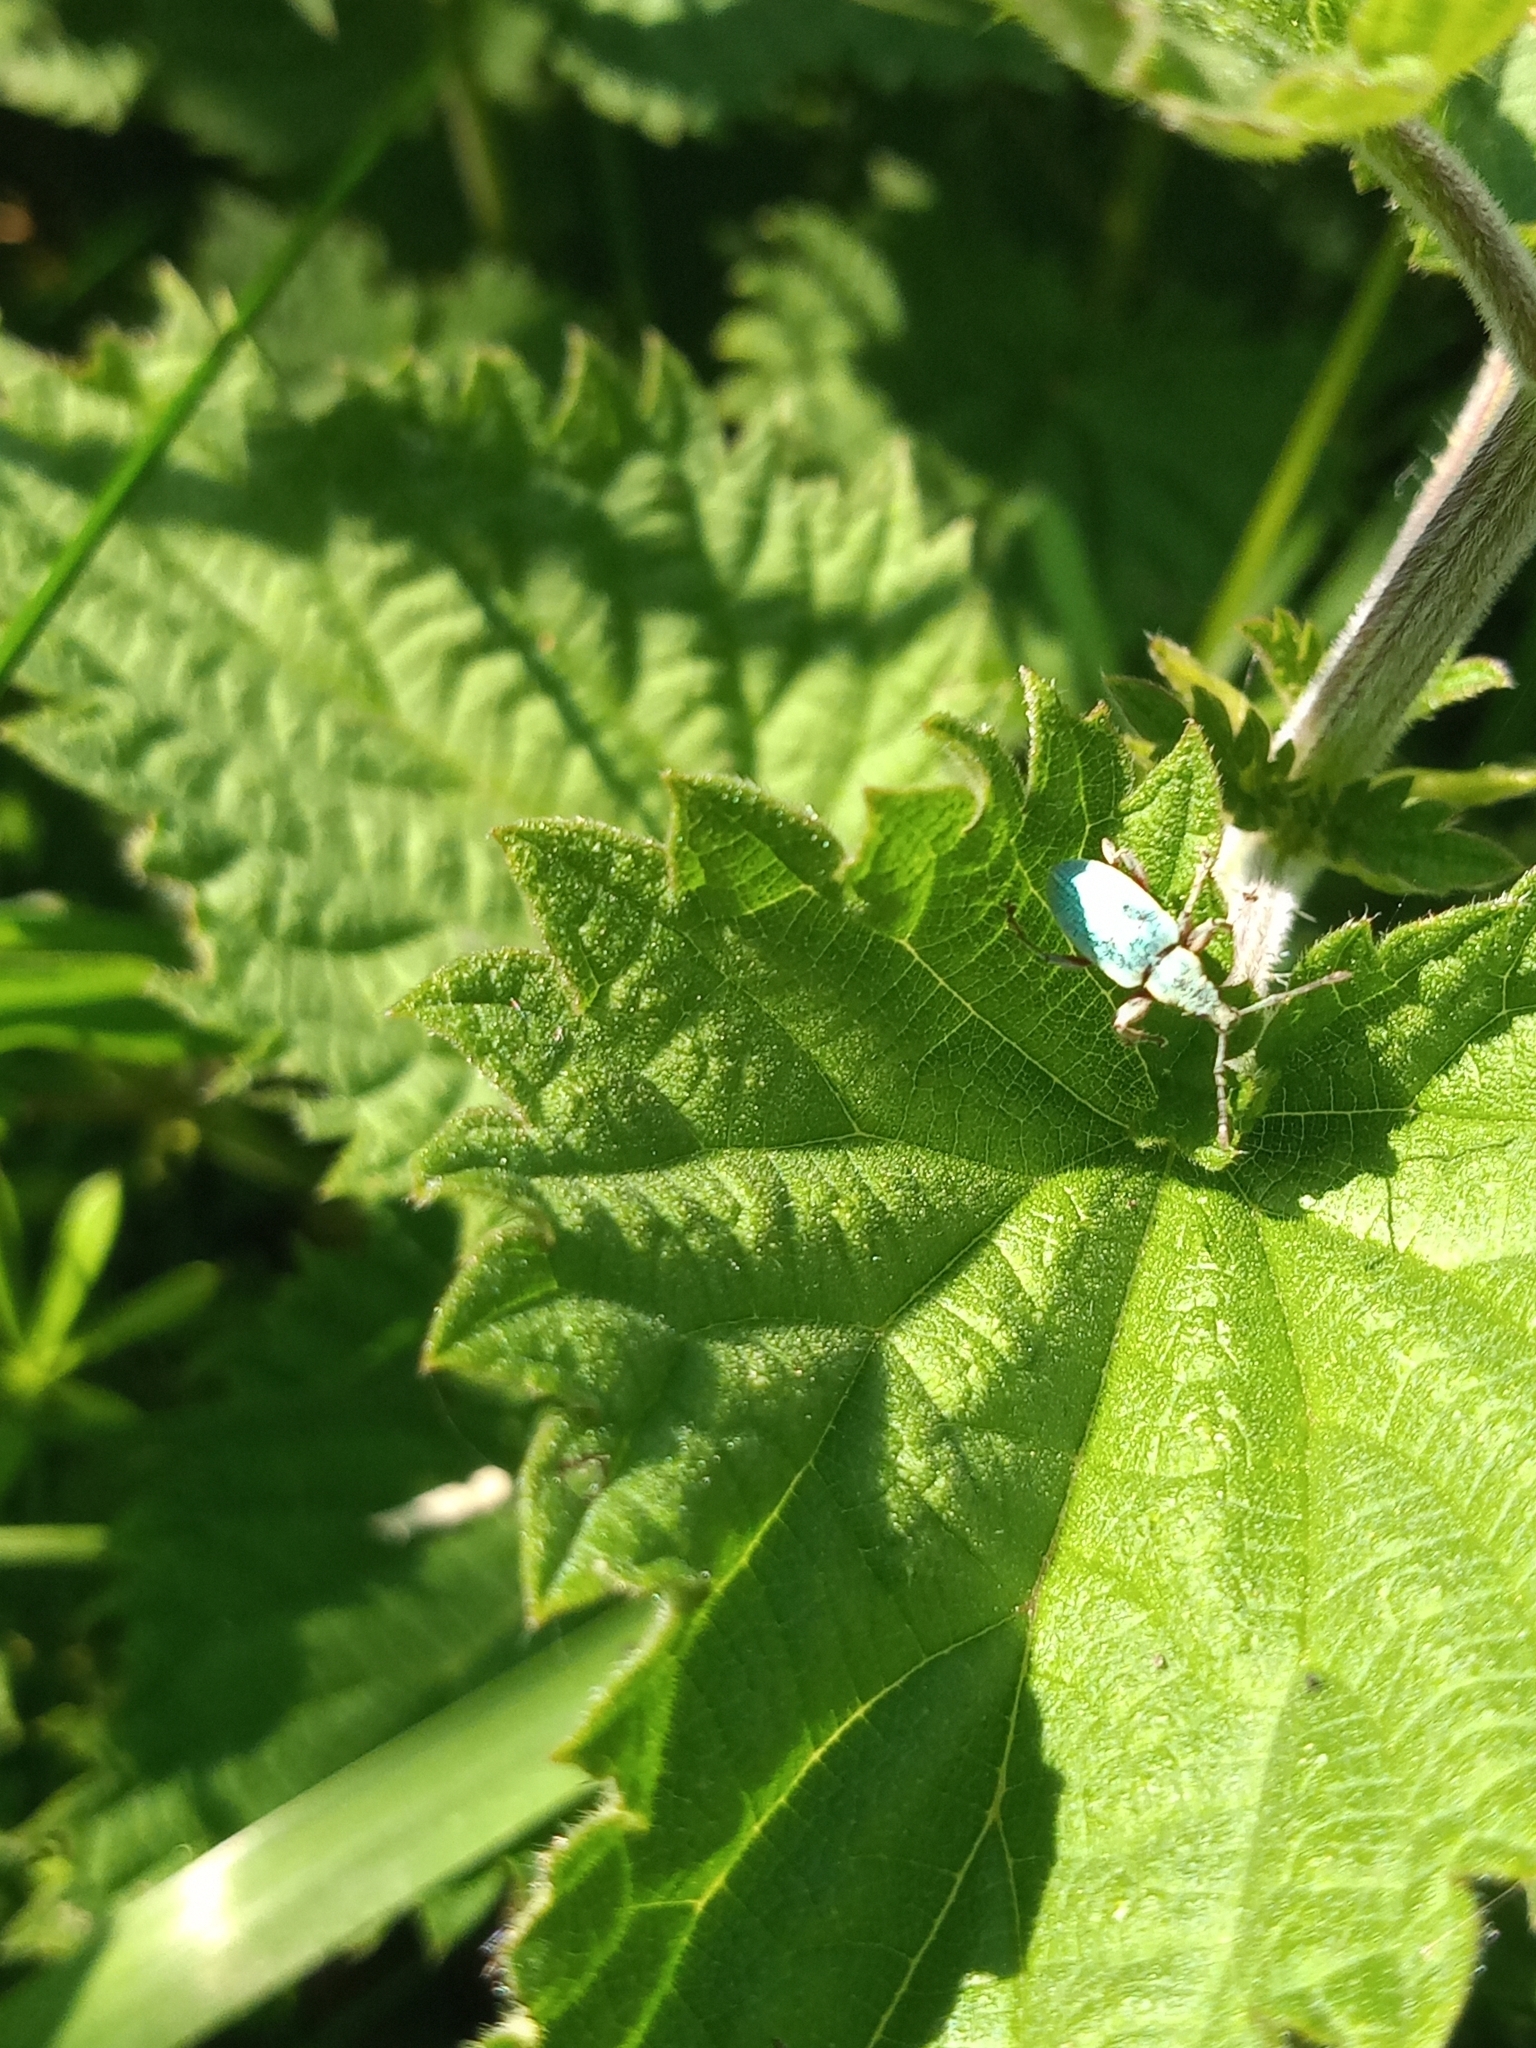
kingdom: Animalia
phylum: Arthropoda
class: Insecta
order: Coleoptera
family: Curculionidae
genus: Phyllobius
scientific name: Phyllobius pomaceus
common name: Green nettle weevil
